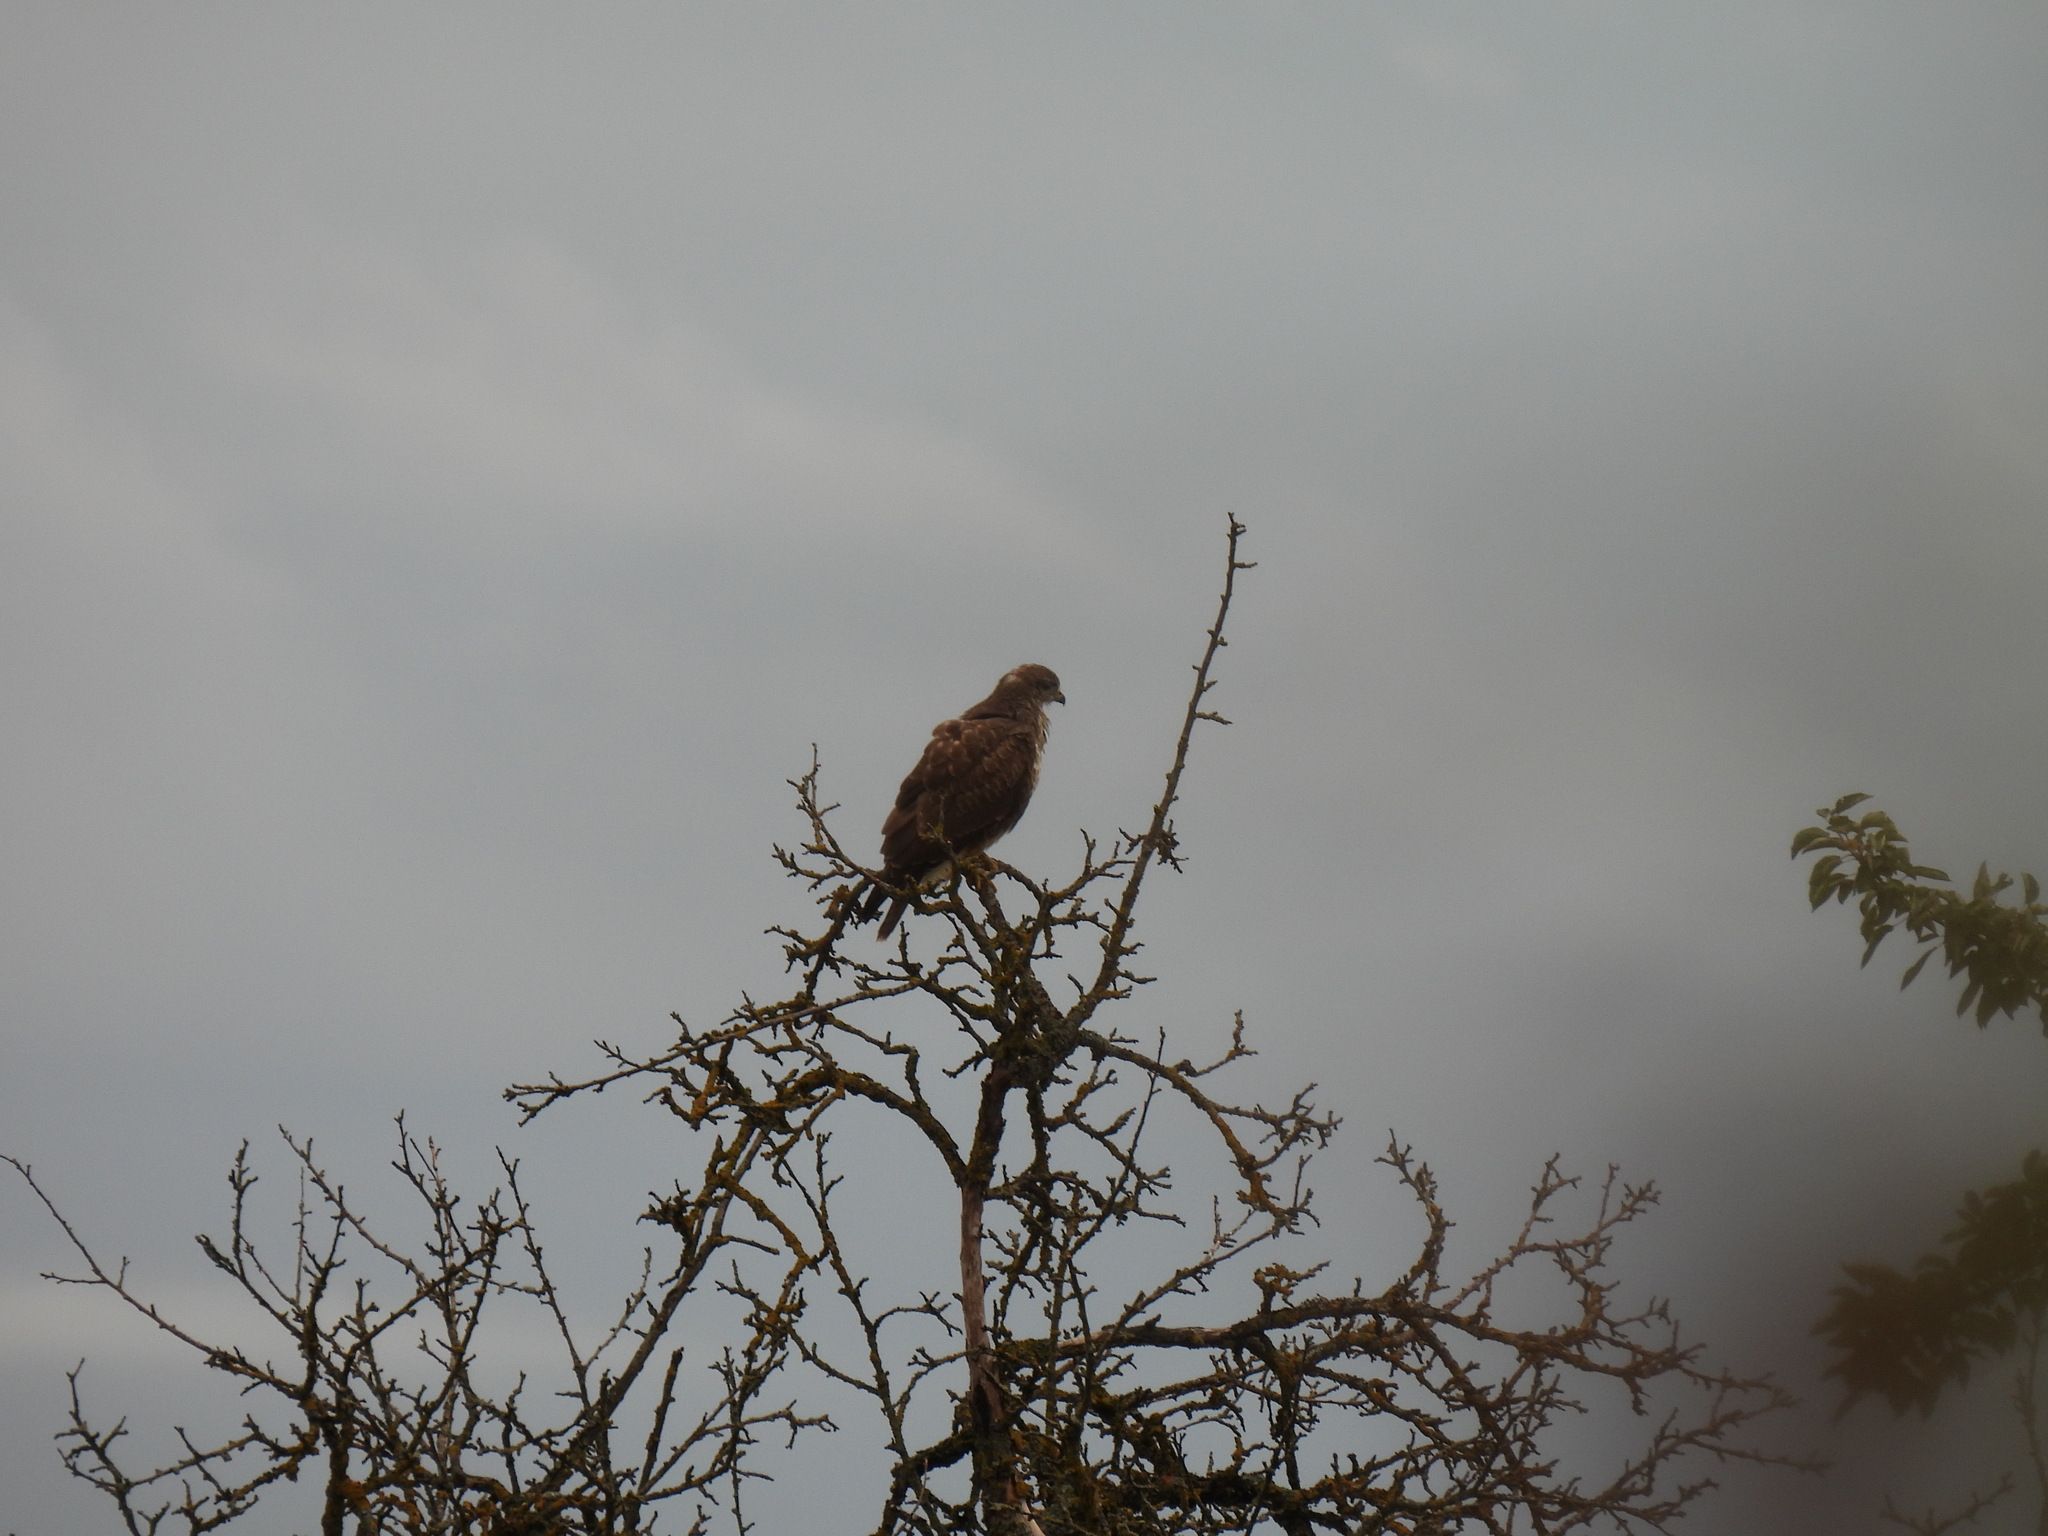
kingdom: Animalia
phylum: Chordata
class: Aves
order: Accipitriformes
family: Accipitridae
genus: Buteo
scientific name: Buteo buteo
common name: Common buzzard
